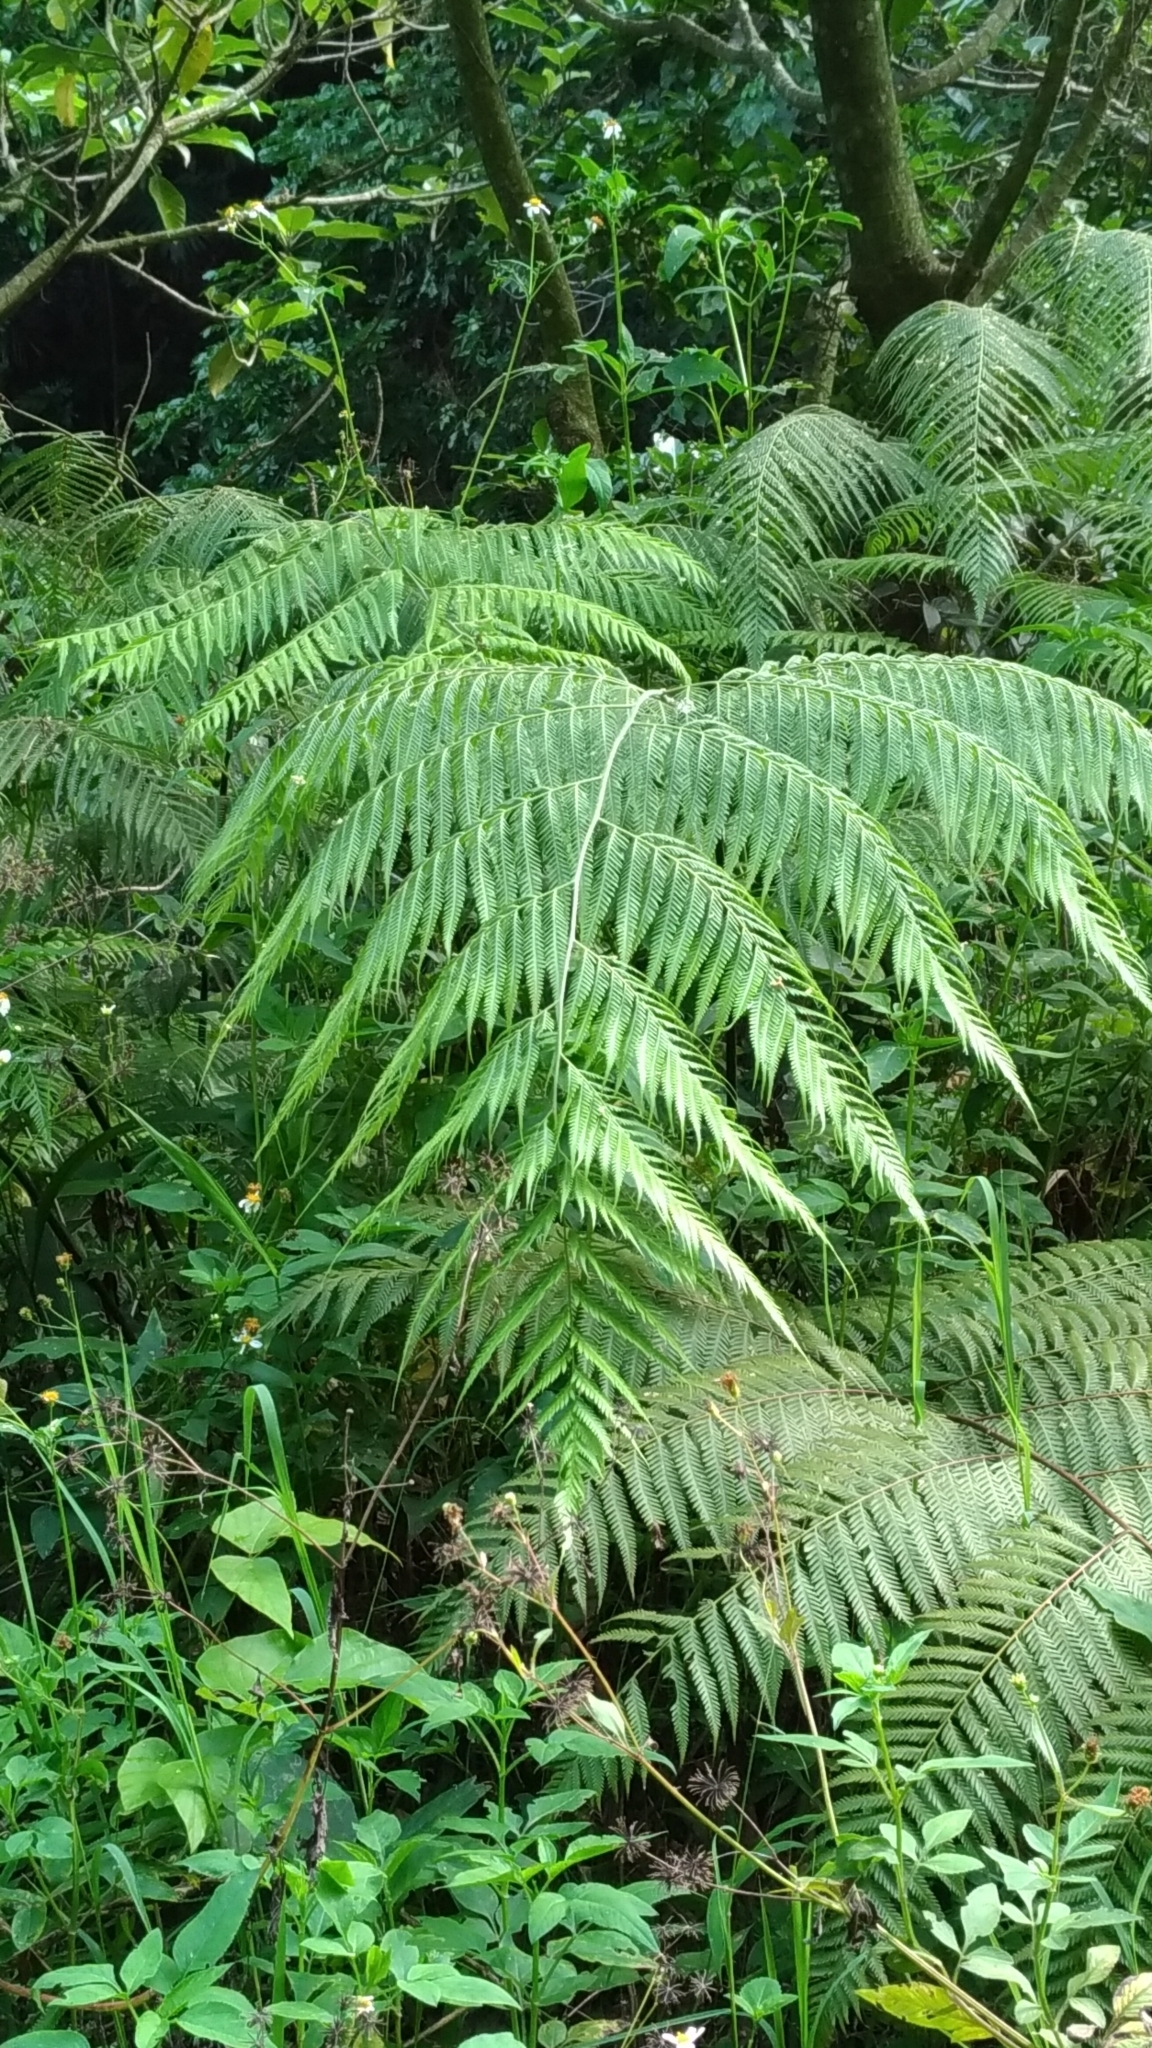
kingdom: Plantae
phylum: Tracheophyta
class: Polypodiopsida
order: Cyatheales
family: Cibotiaceae
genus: Cibotium
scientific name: Cibotium barometz
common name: Scythian-lamb
